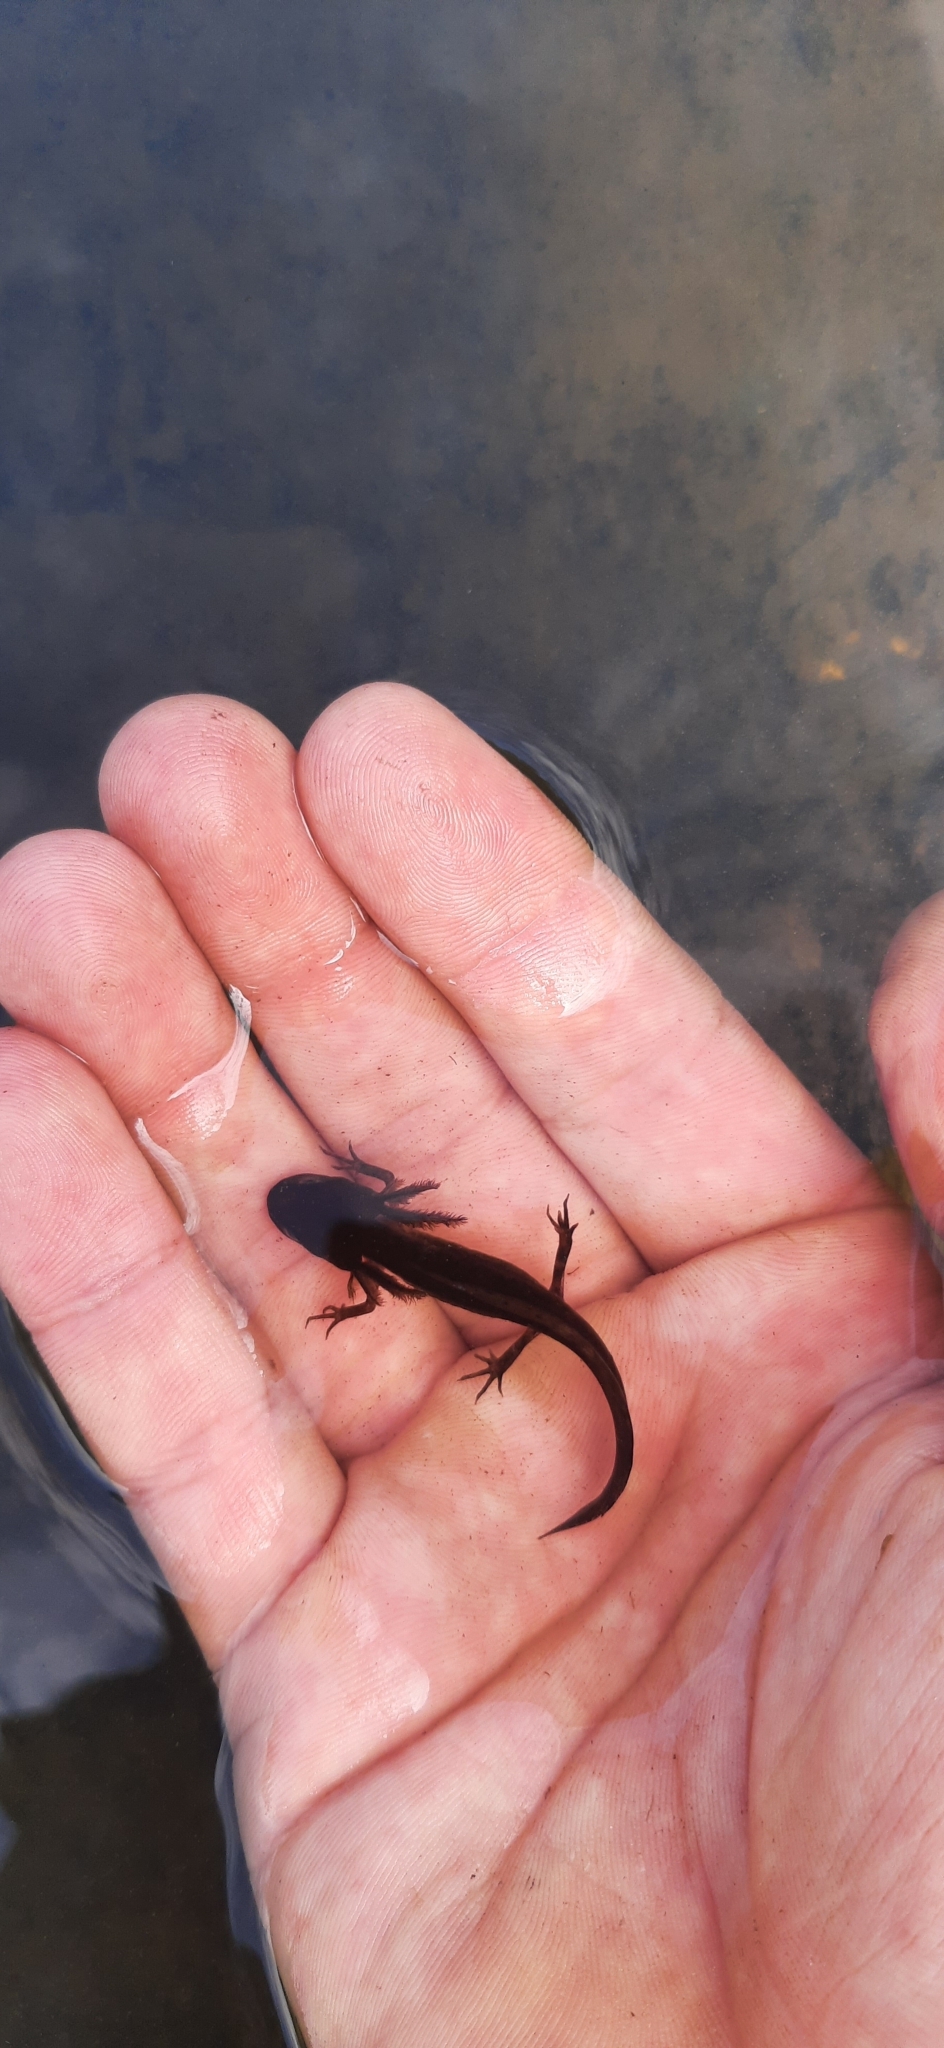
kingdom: Animalia
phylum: Chordata
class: Amphibia
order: Caudata
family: Salamandridae
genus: Triturus
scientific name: Triturus cristatus
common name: Crested newt
